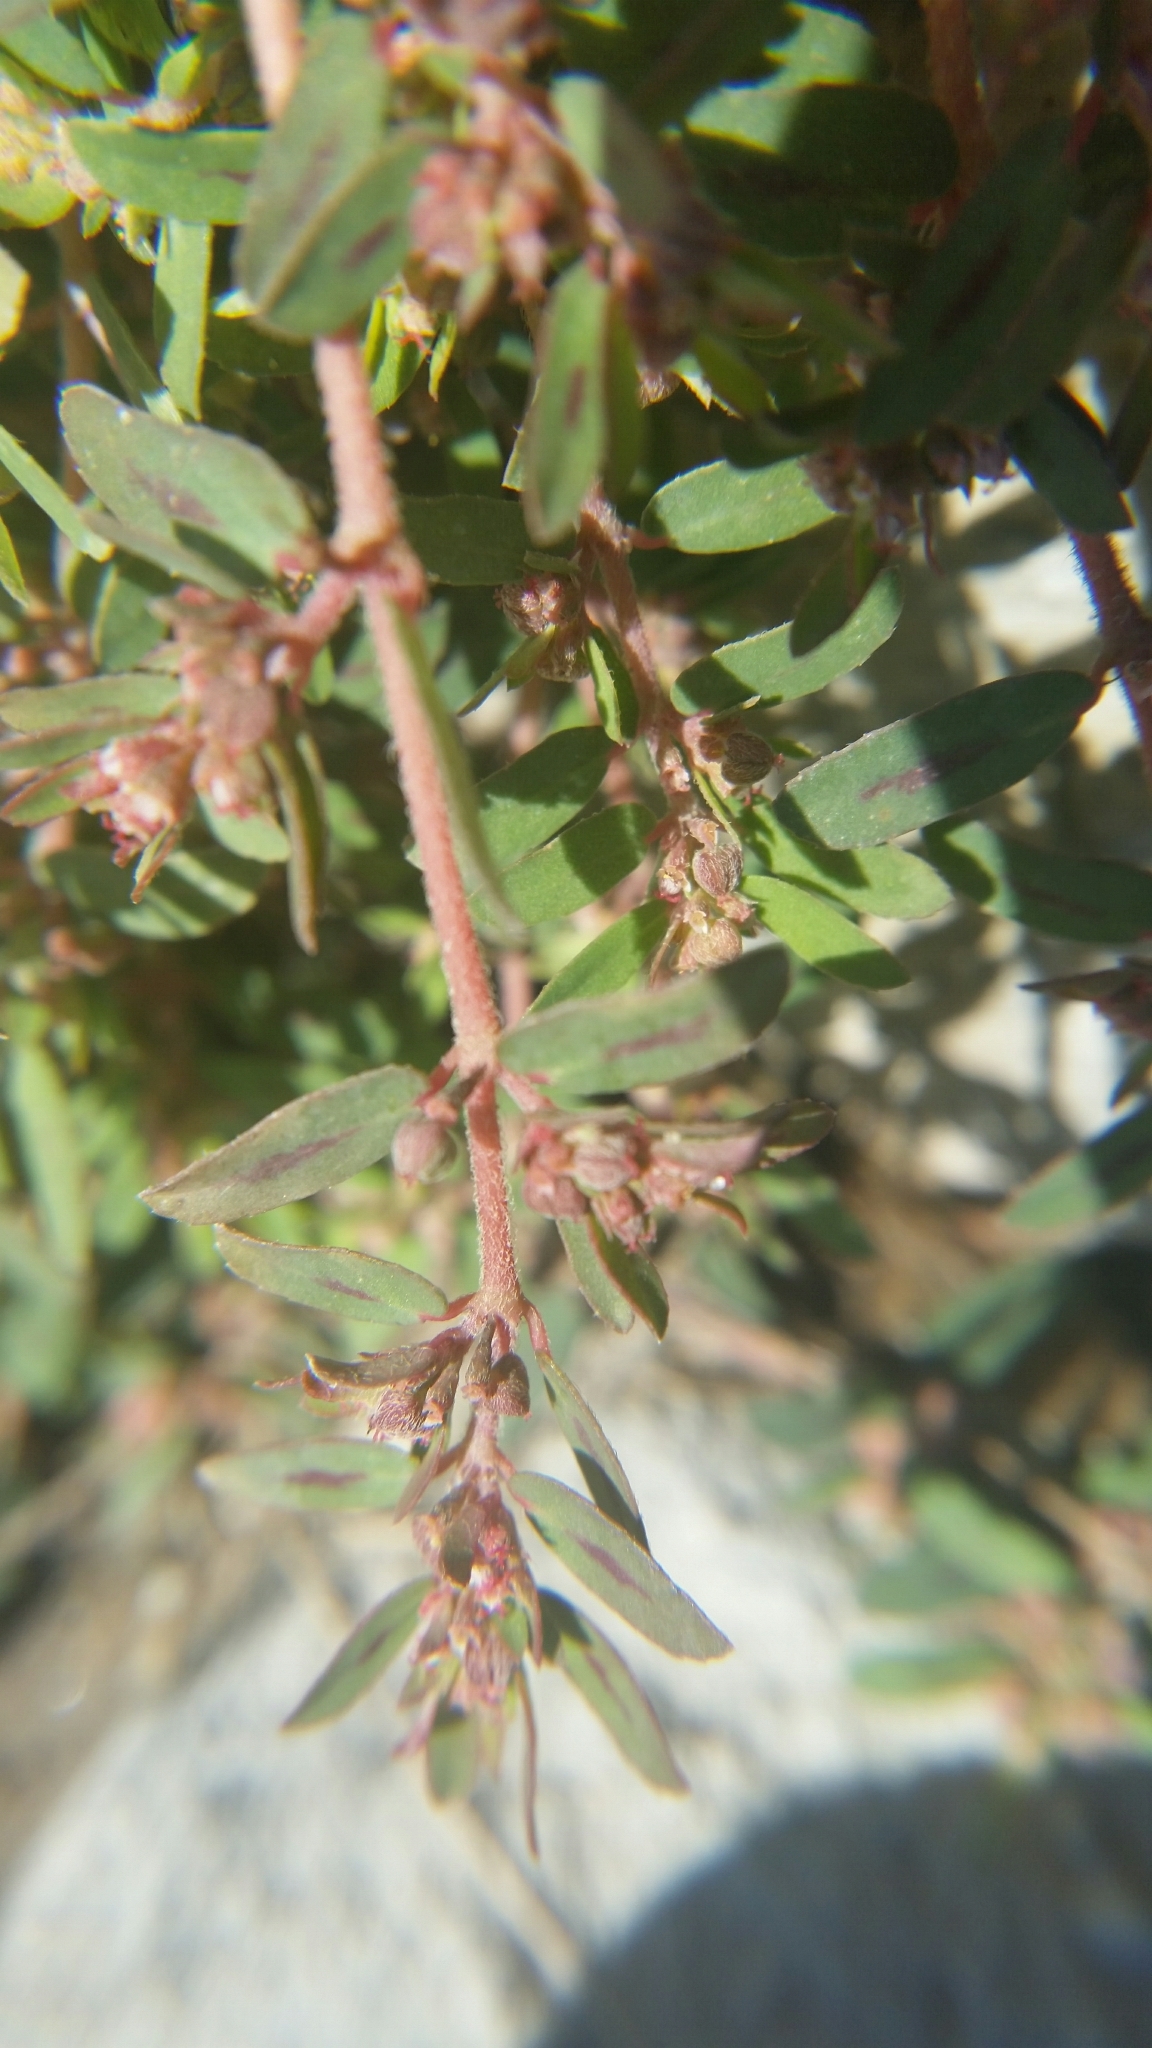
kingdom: Plantae
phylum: Tracheophyta
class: Magnoliopsida
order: Malpighiales
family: Euphorbiaceae
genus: Euphorbia
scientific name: Euphorbia maculata
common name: Spotted spurge
